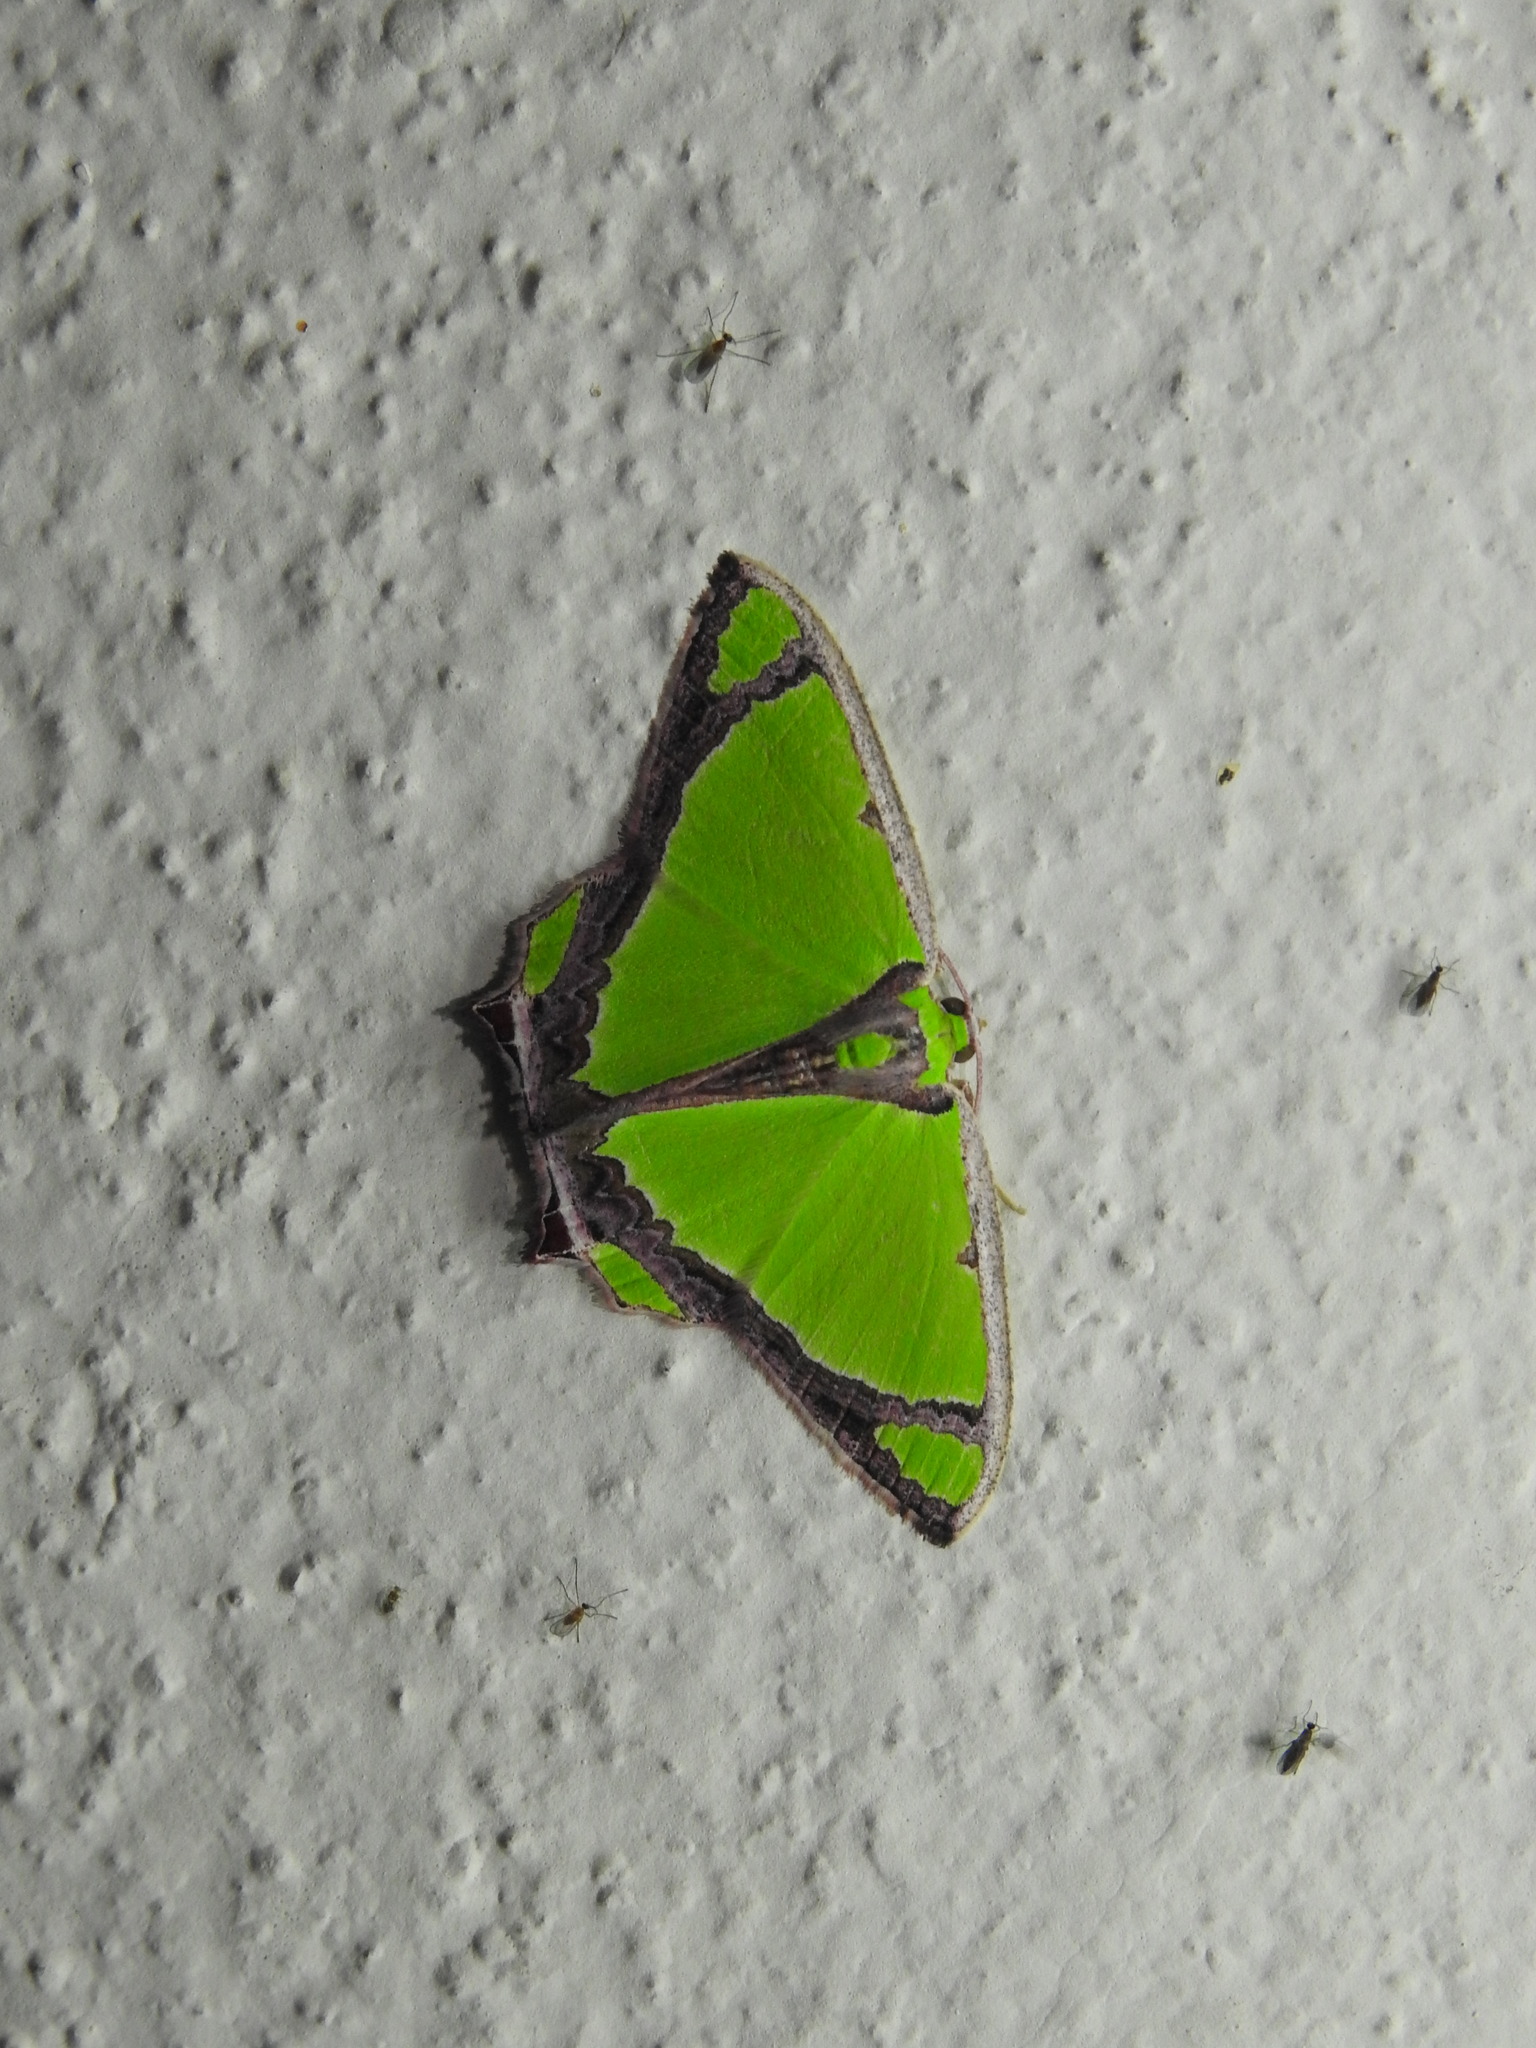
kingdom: Animalia
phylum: Arthropoda
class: Insecta
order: Lepidoptera
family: Geometridae
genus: Agathia
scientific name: Agathia laetata
